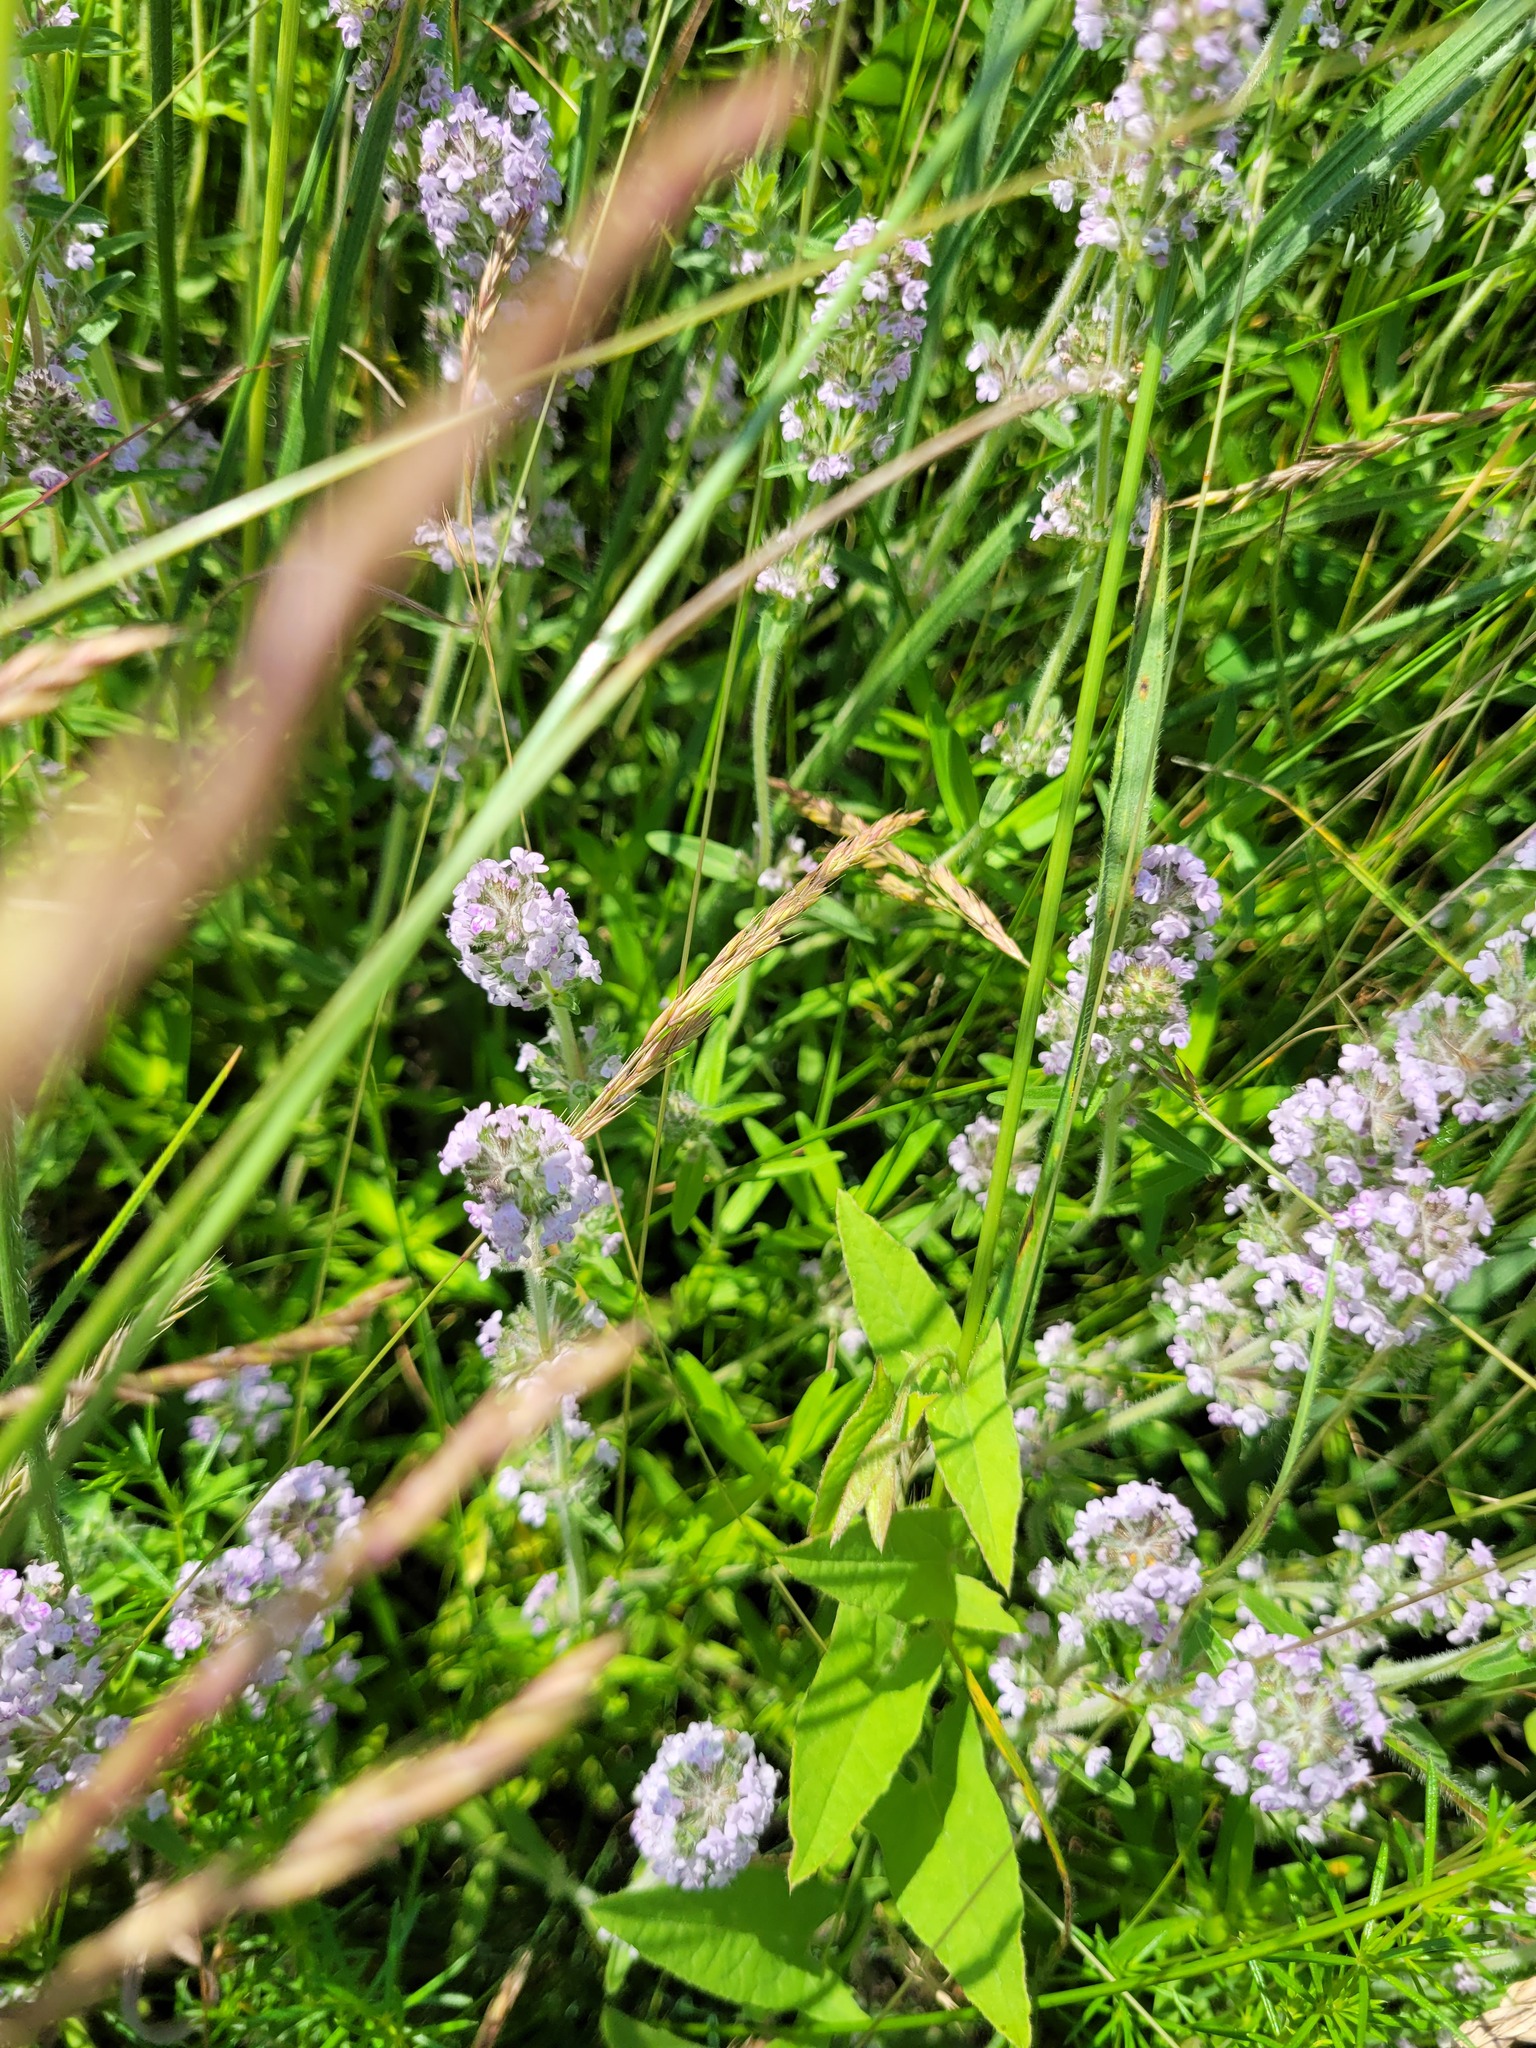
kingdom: Plantae
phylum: Tracheophyta
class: Magnoliopsida
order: Lamiales
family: Lamiaceae
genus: Thymus
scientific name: Thymus pannonicus
